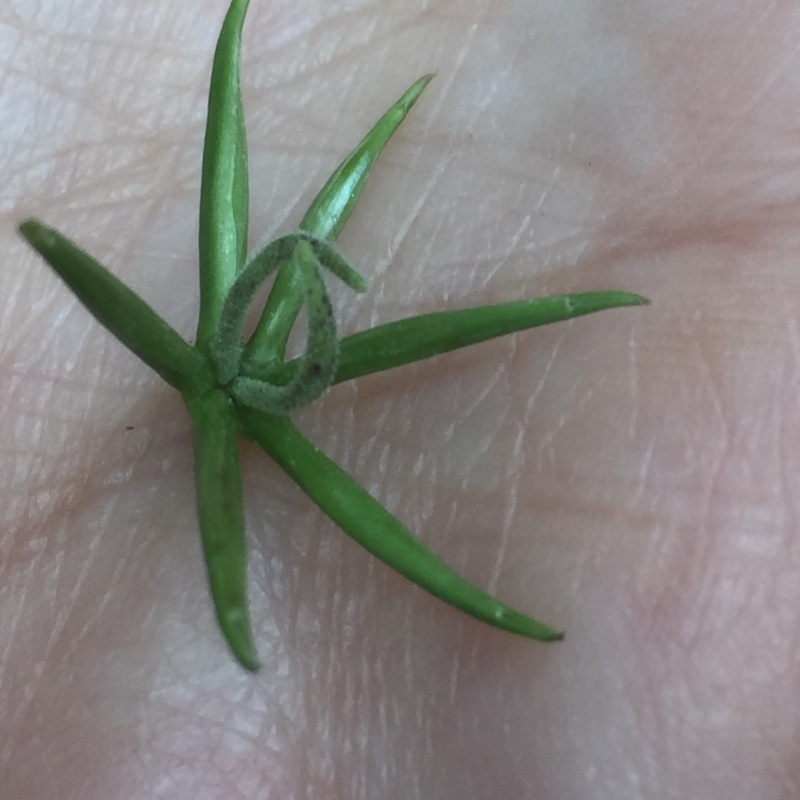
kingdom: Plantae
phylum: Tracheophyta
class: Magnoliopsida
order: Asterales
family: Asteraceae
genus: Rhagadiolus
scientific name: Rhagadiolus stellatus
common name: Star hawkbit
